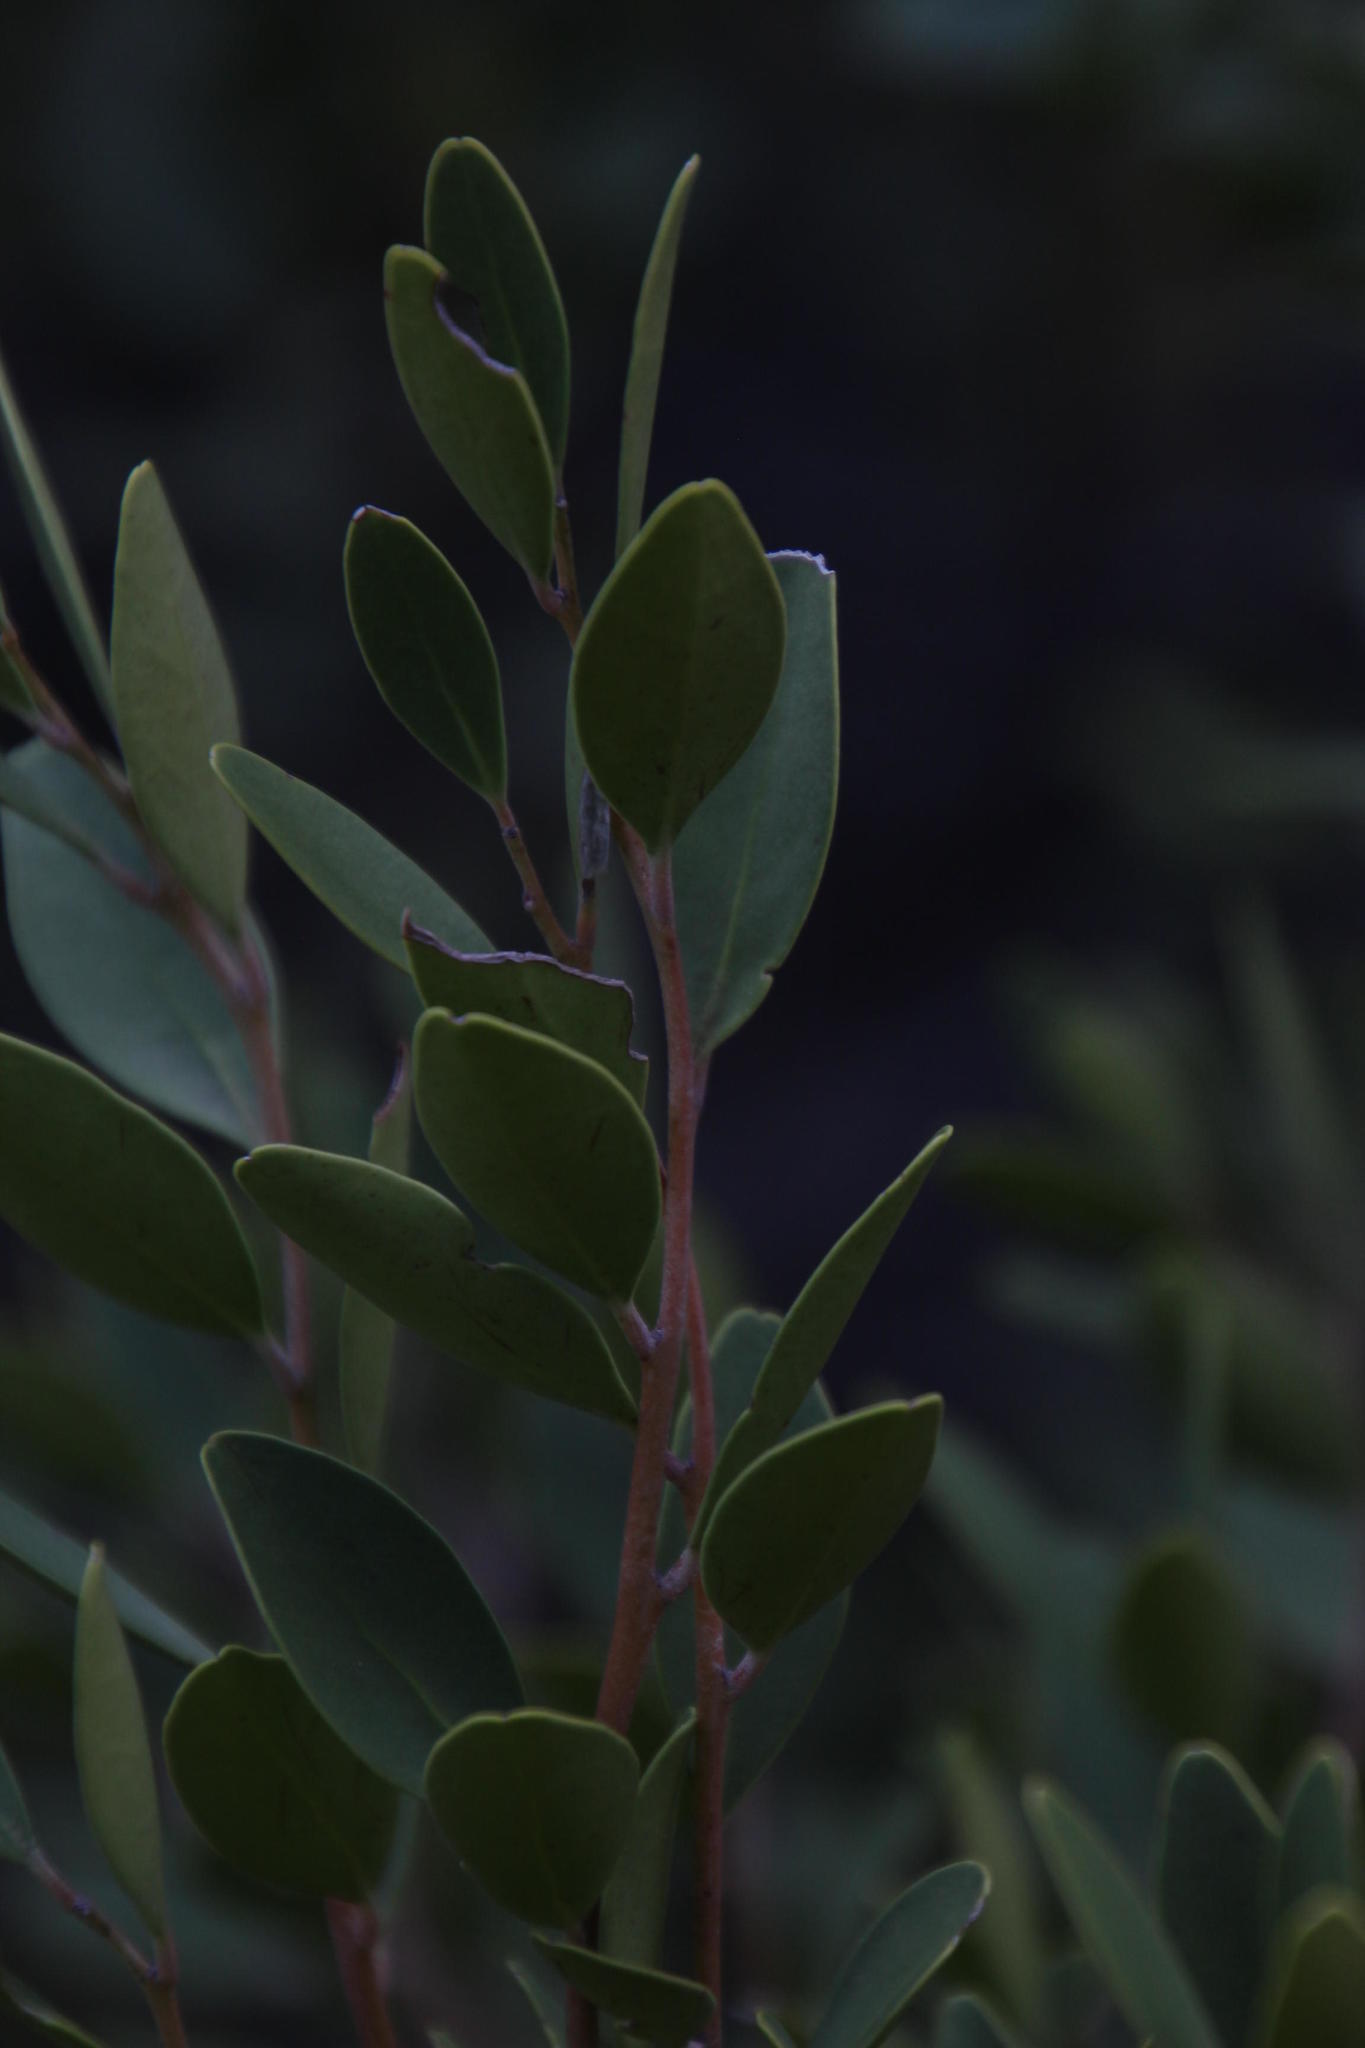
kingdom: Plantae
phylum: Tracheophyta
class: Magnoliopsida
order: Celastrales
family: Celastraceae
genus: Gymnosporia
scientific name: Gymnosporia laurina
